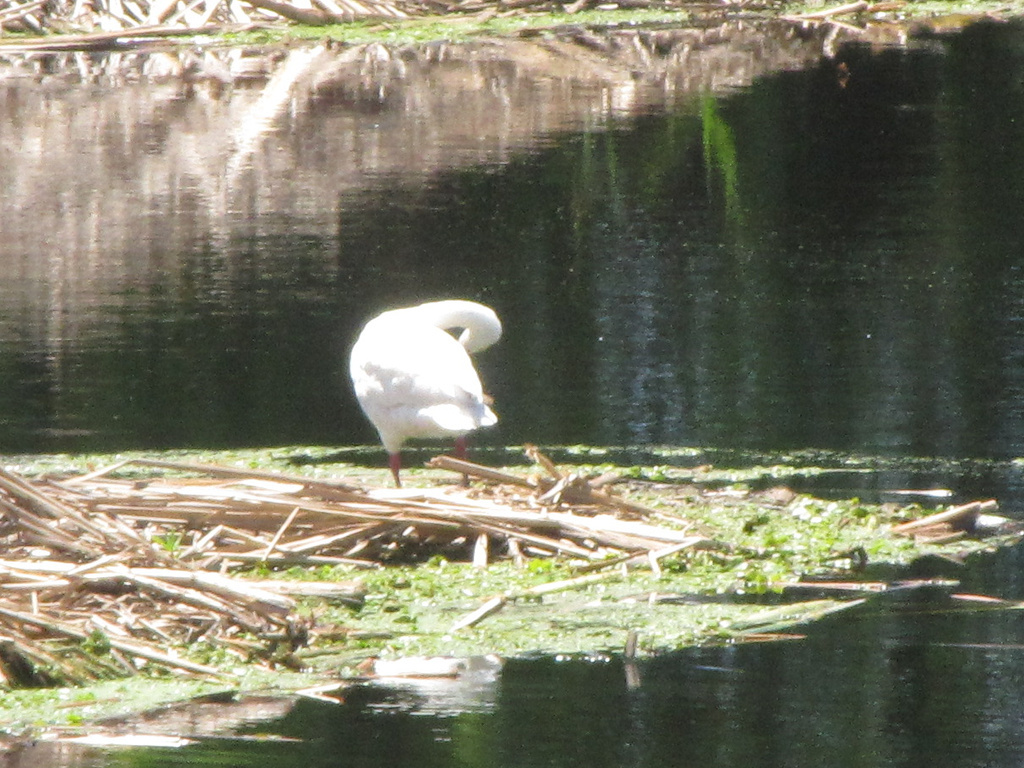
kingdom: Animalia
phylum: Chordata
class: Aves
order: Anseriformes
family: Anatidae
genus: Coscoroba
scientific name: Coscoroba coscoroba
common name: Coscoroba swan
